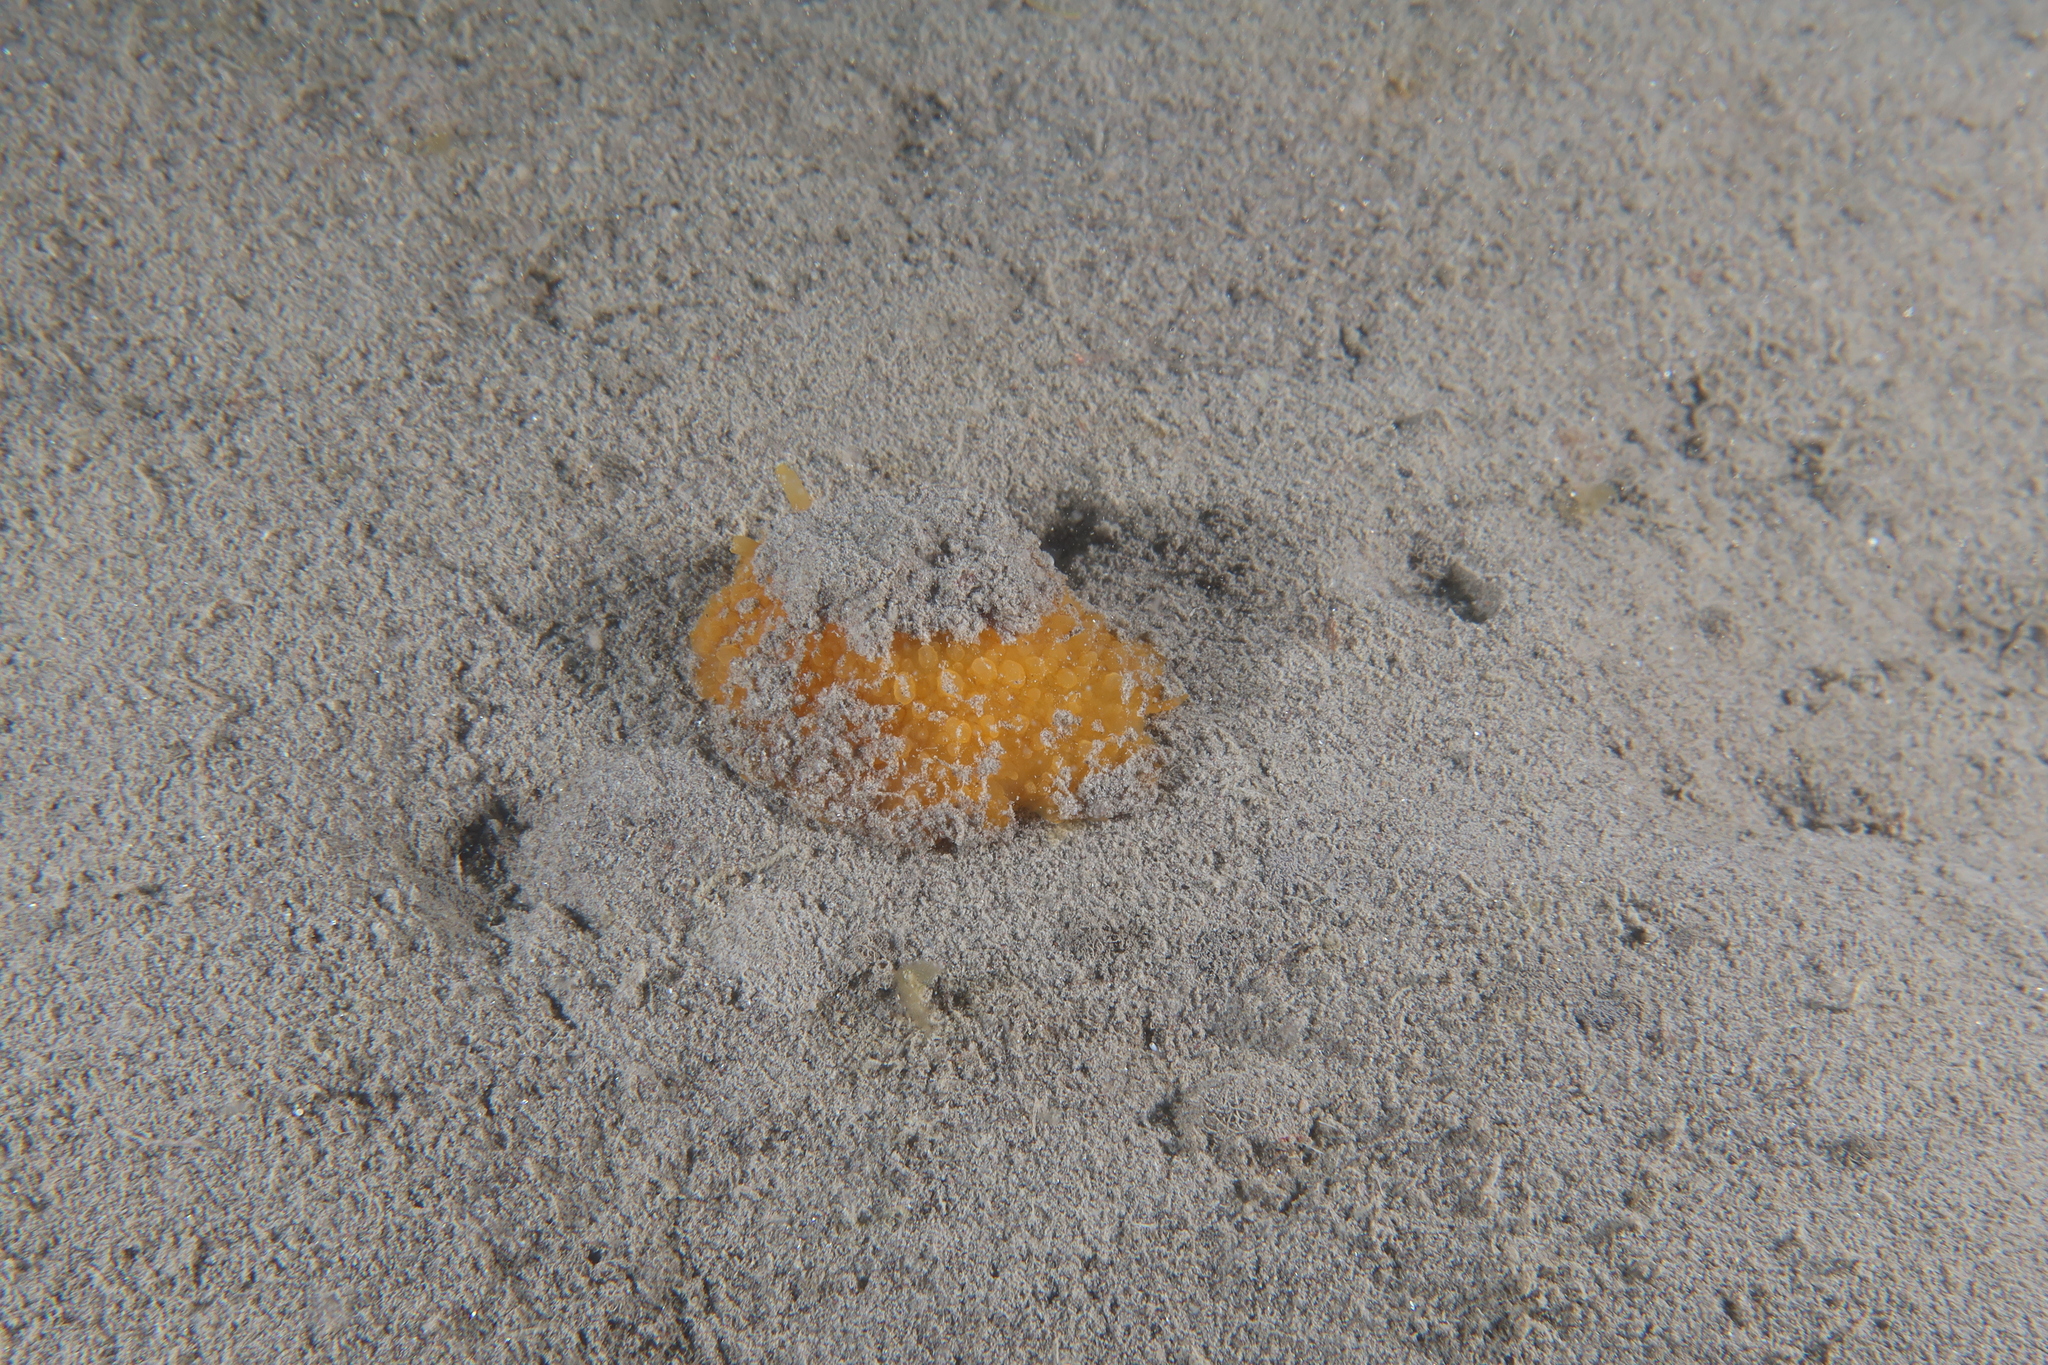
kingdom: Animalia
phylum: Mollusca
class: Gastropoda
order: Umbraculida
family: Umbraculidae
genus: Umbraculum
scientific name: Umbraculum umbraculum
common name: Atlantic umbrella slug
